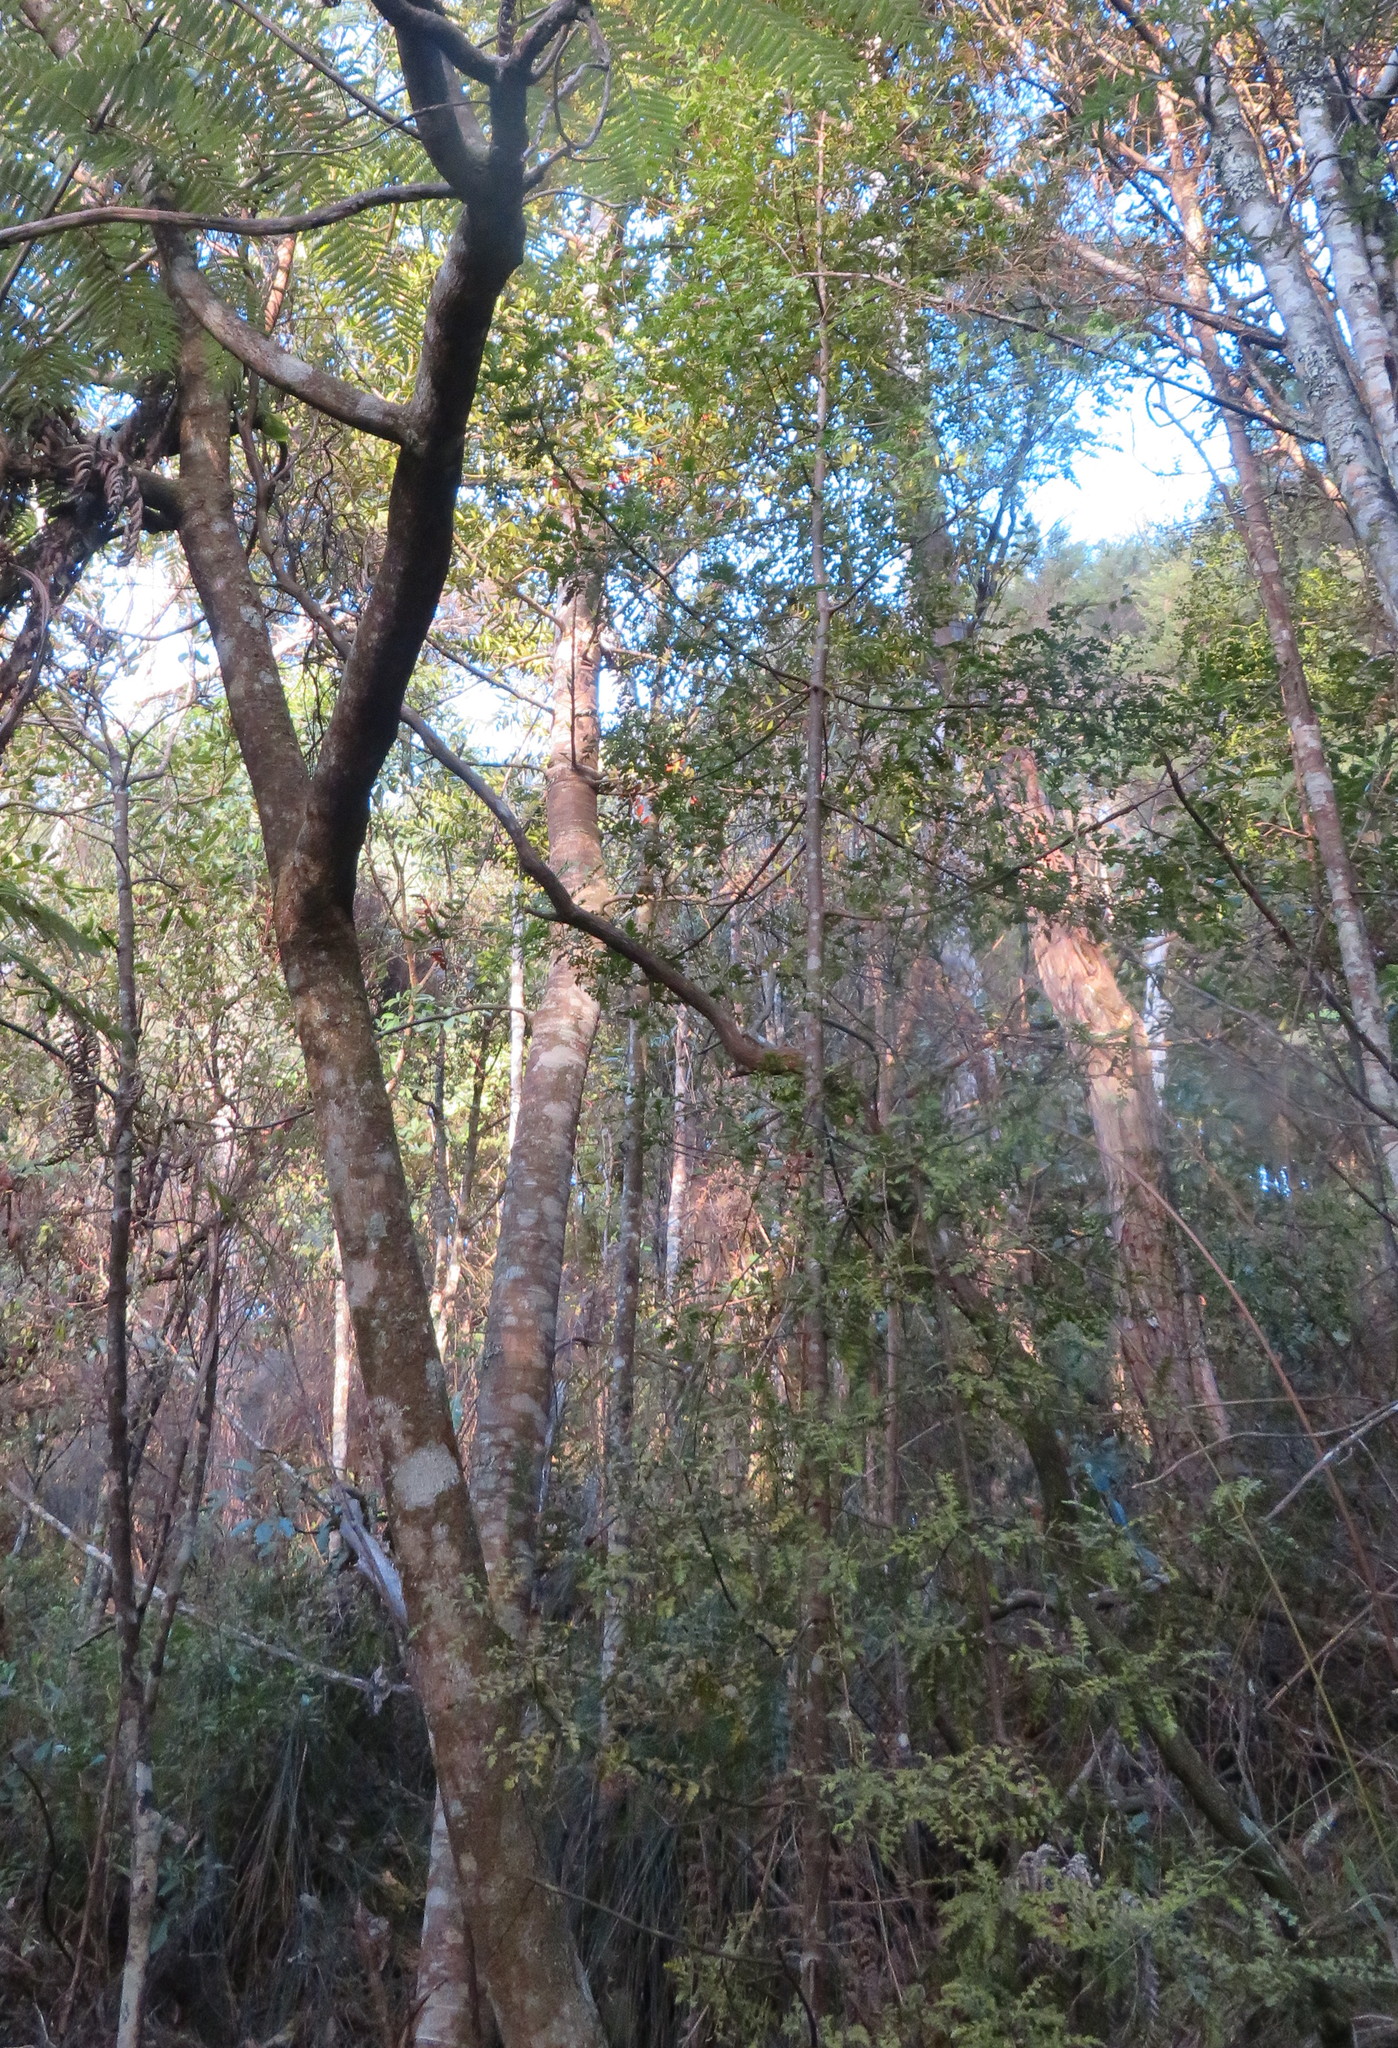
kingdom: Plantae
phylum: Tracheophyta
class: Pinopsida
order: Pinales
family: Araucariaceae
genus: Agathis
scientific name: Agathis australis
